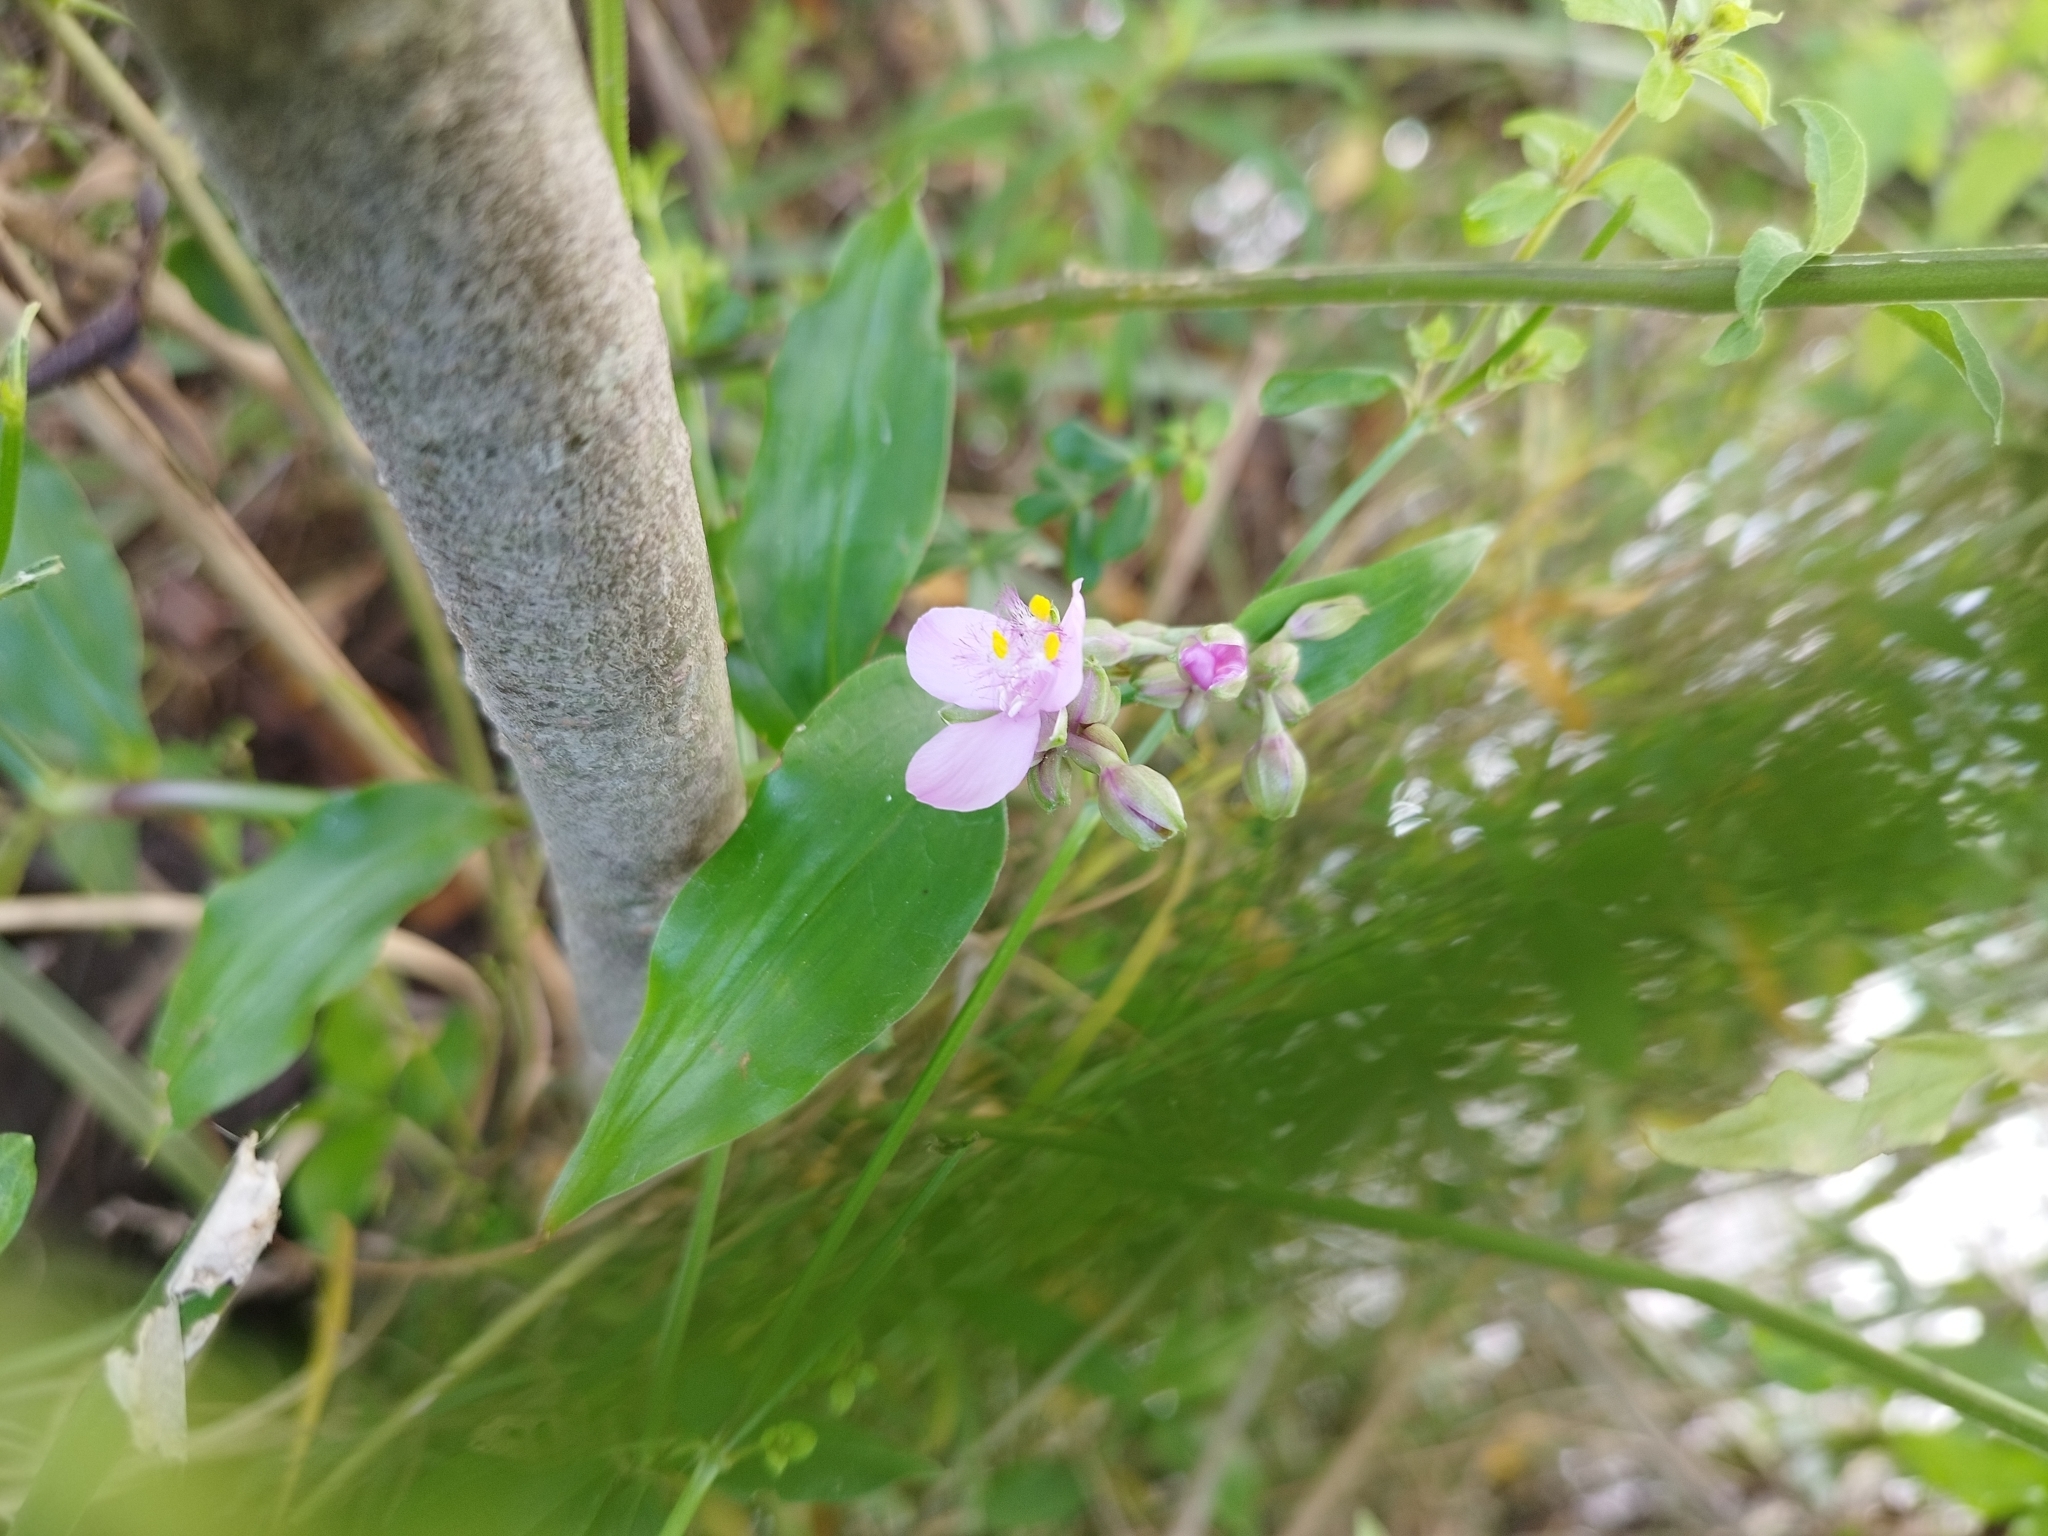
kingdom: Plantae
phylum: Tracheophyta
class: Liliopsida
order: Commelinales
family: Commelinaceae
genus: Callisia
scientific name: Callisia diuretica
